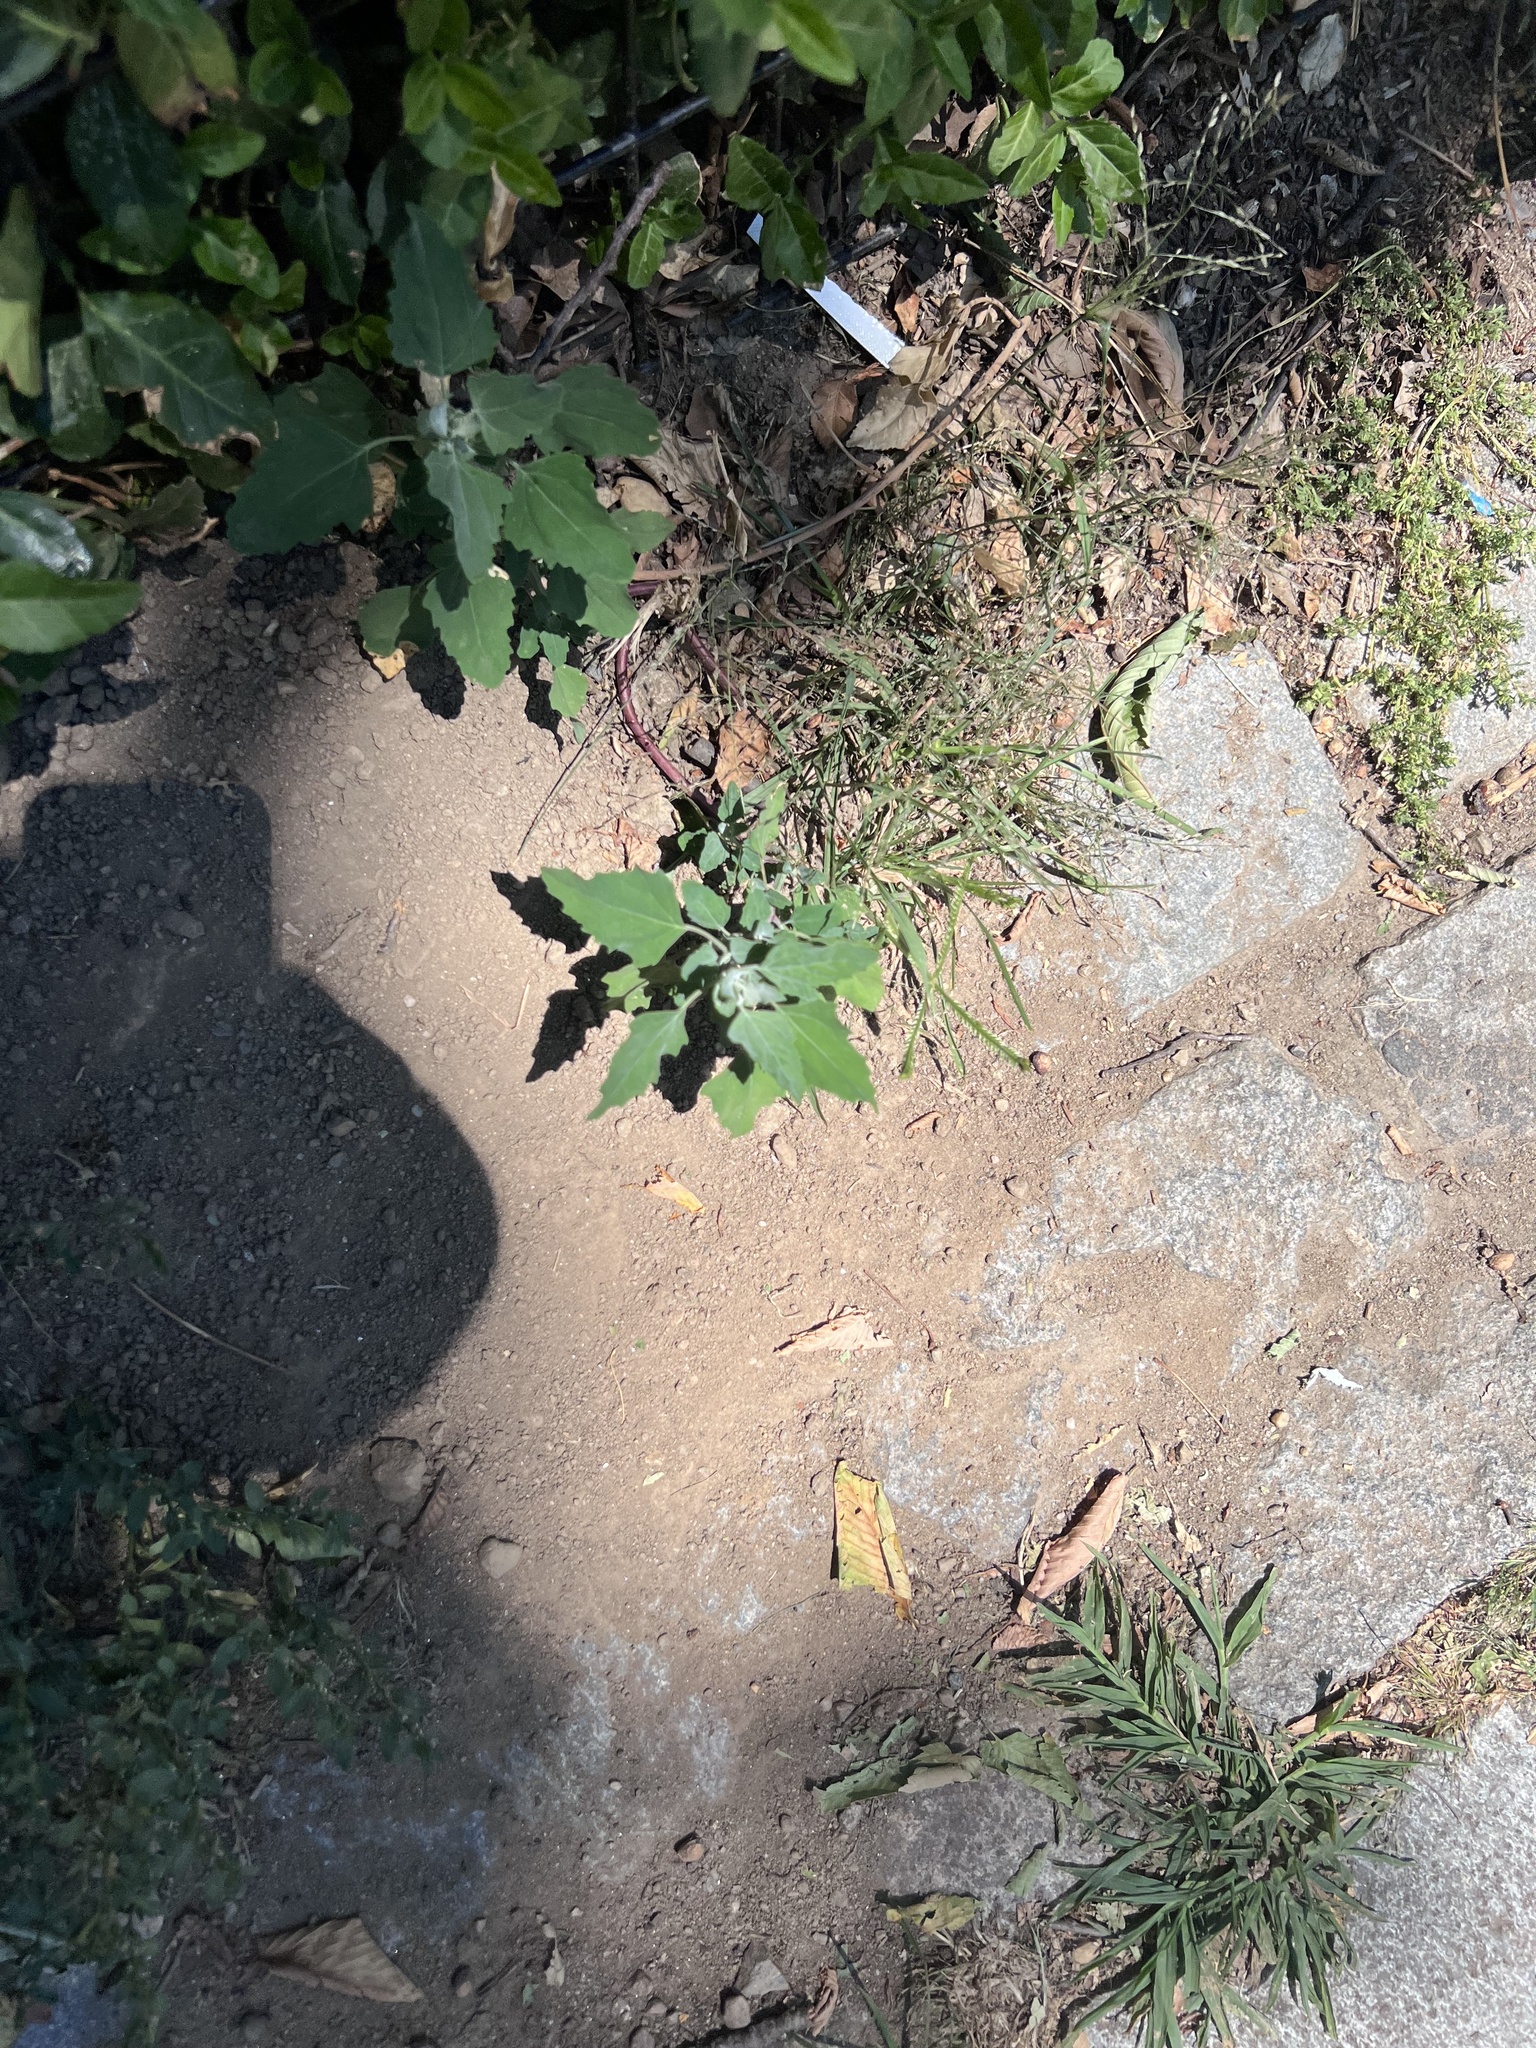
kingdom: Plantae
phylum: Tracheophyta
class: Magnoliopsida
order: Caryophyllales
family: Amaranthaceae
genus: Chenopodium
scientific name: Chenopodium album
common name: Fat-hen
